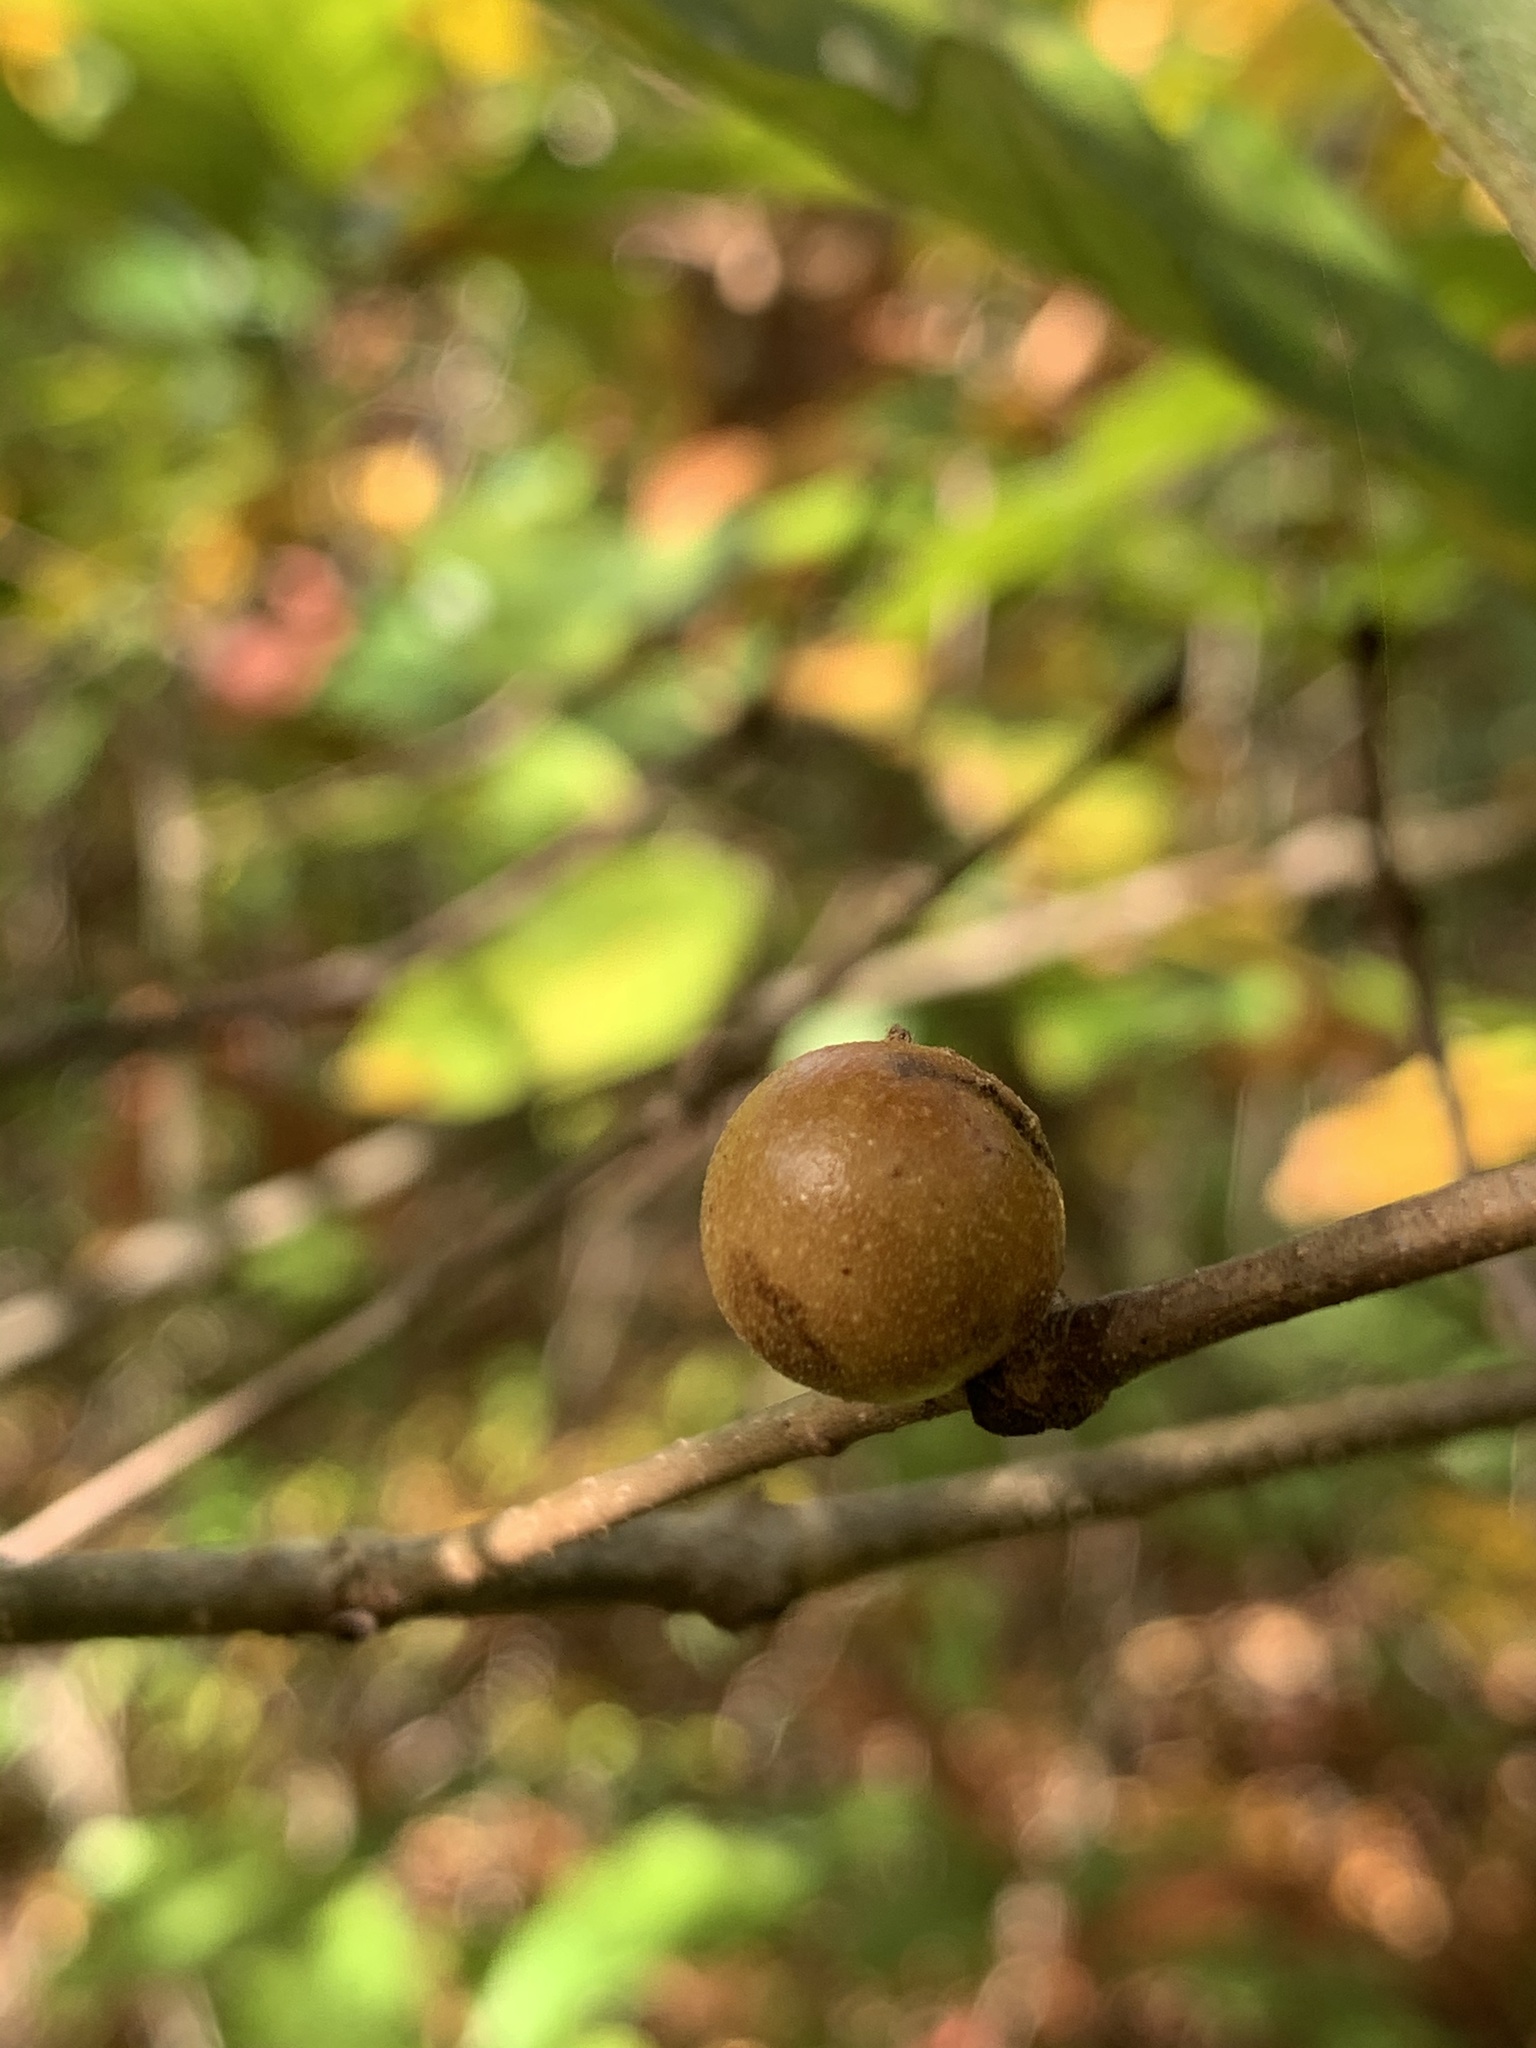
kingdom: Animalia
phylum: Arthropoda
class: Insecta
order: Hymenoptera
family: Cynipidae
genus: Disholcaspis
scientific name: Disholcaspis quercusglobulus
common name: Round bullet gall wasp
